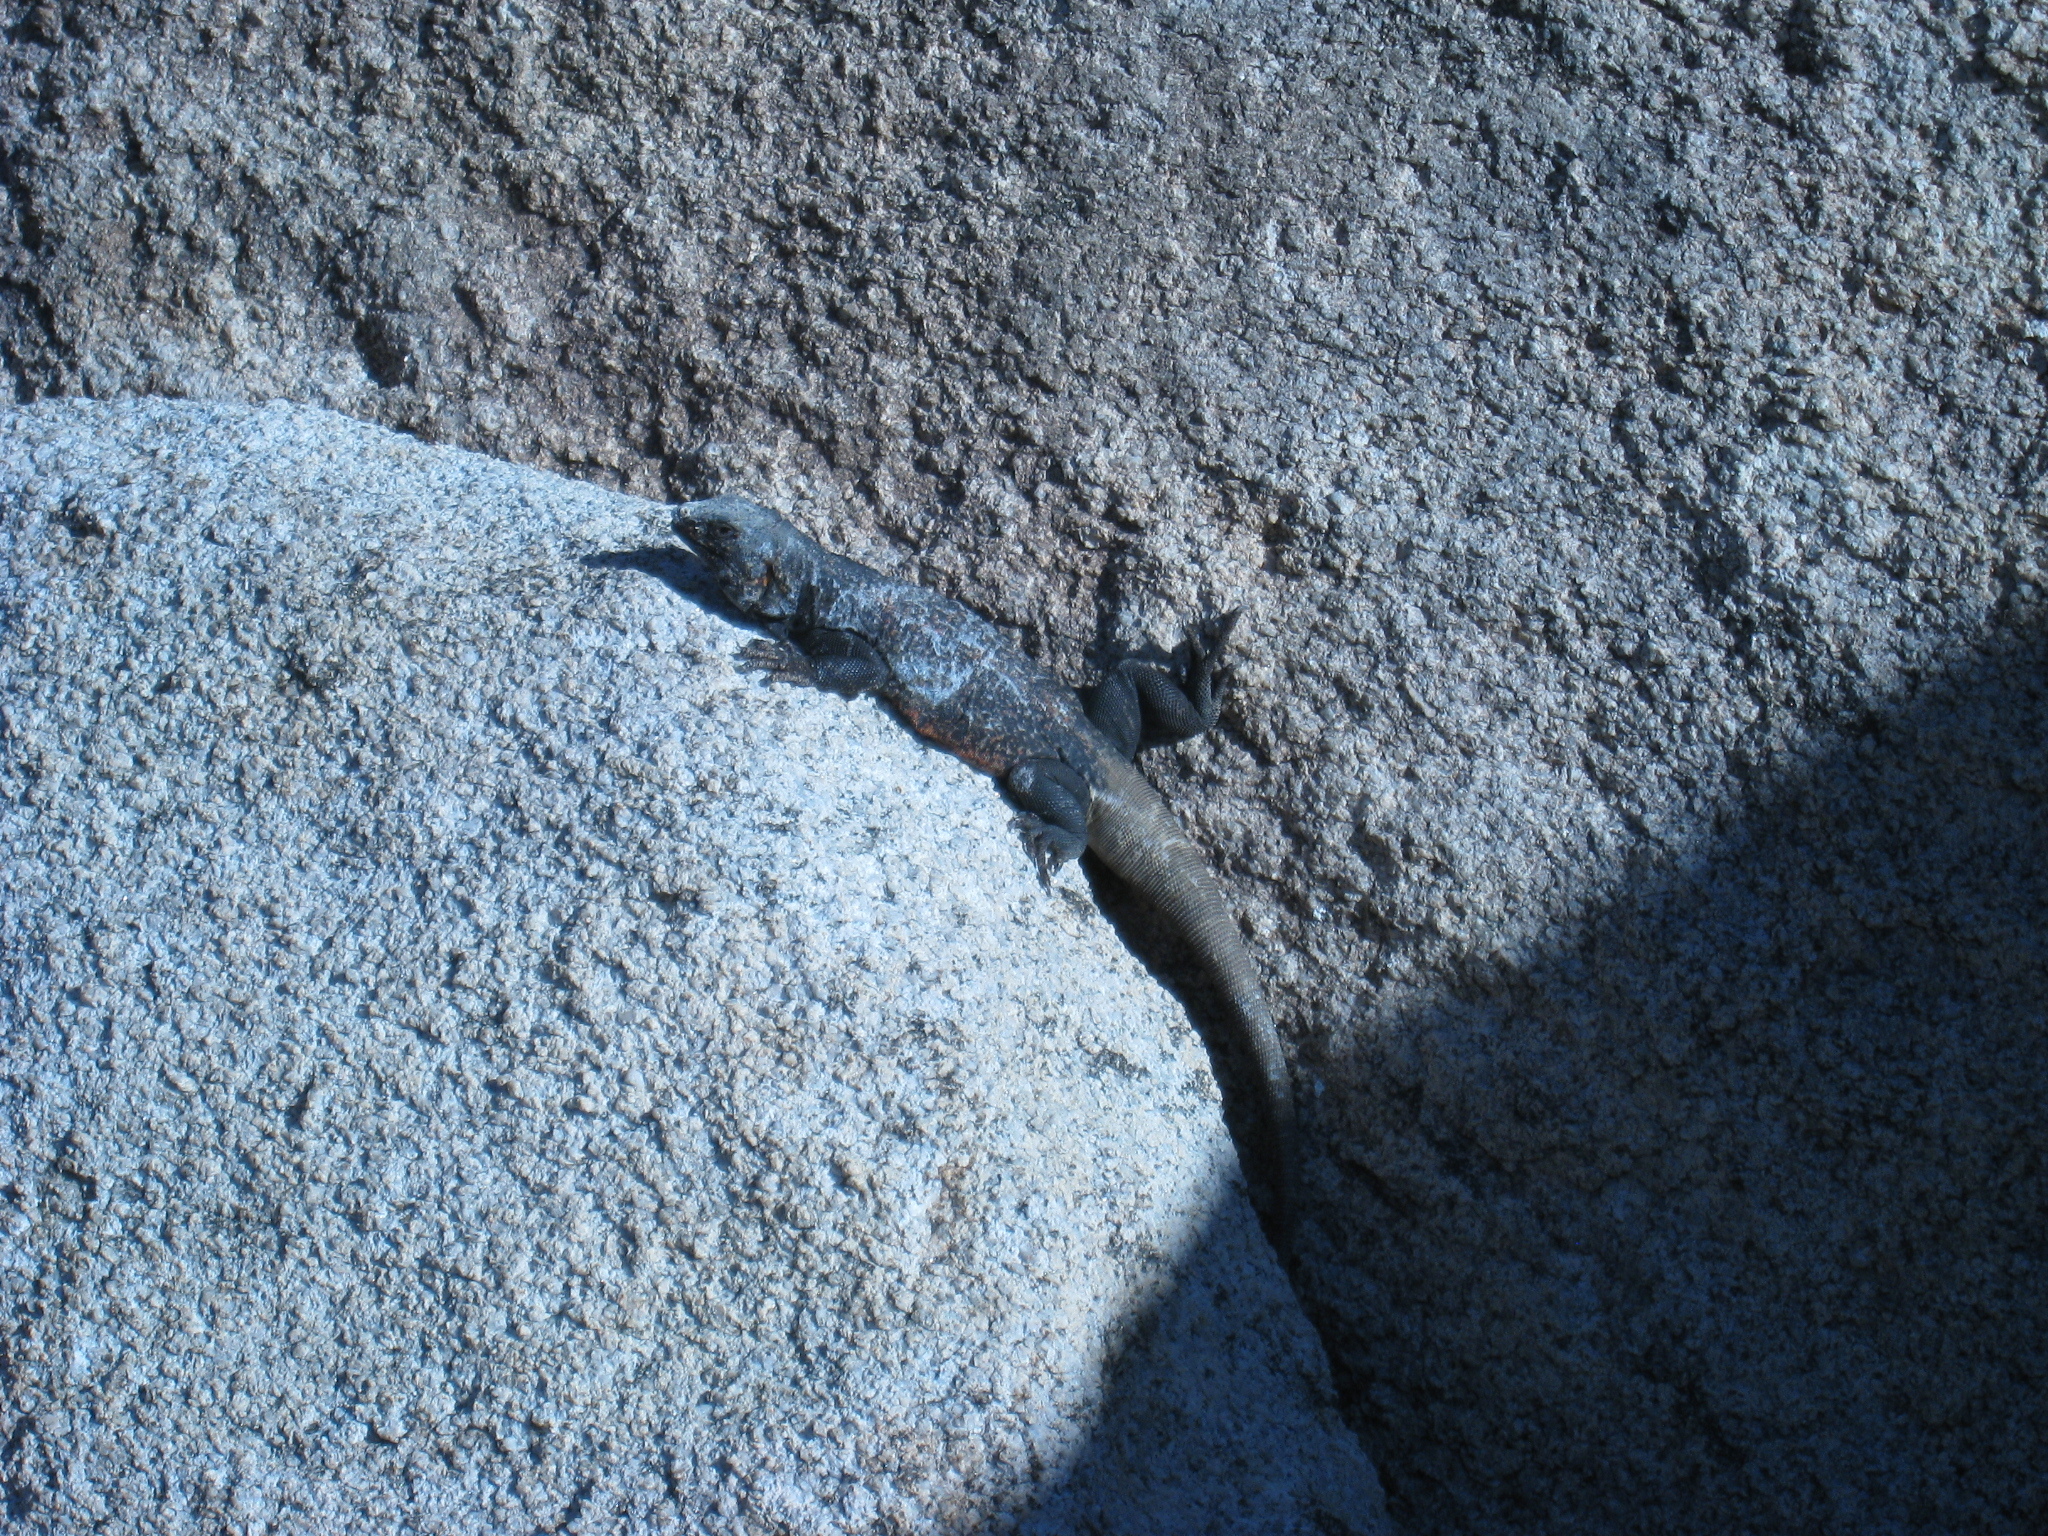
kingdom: Animalia
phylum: Chordata
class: Squamata
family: Iguanidae
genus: Sauromalus
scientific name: Sauromalus ater
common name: Northern chuckwalla
